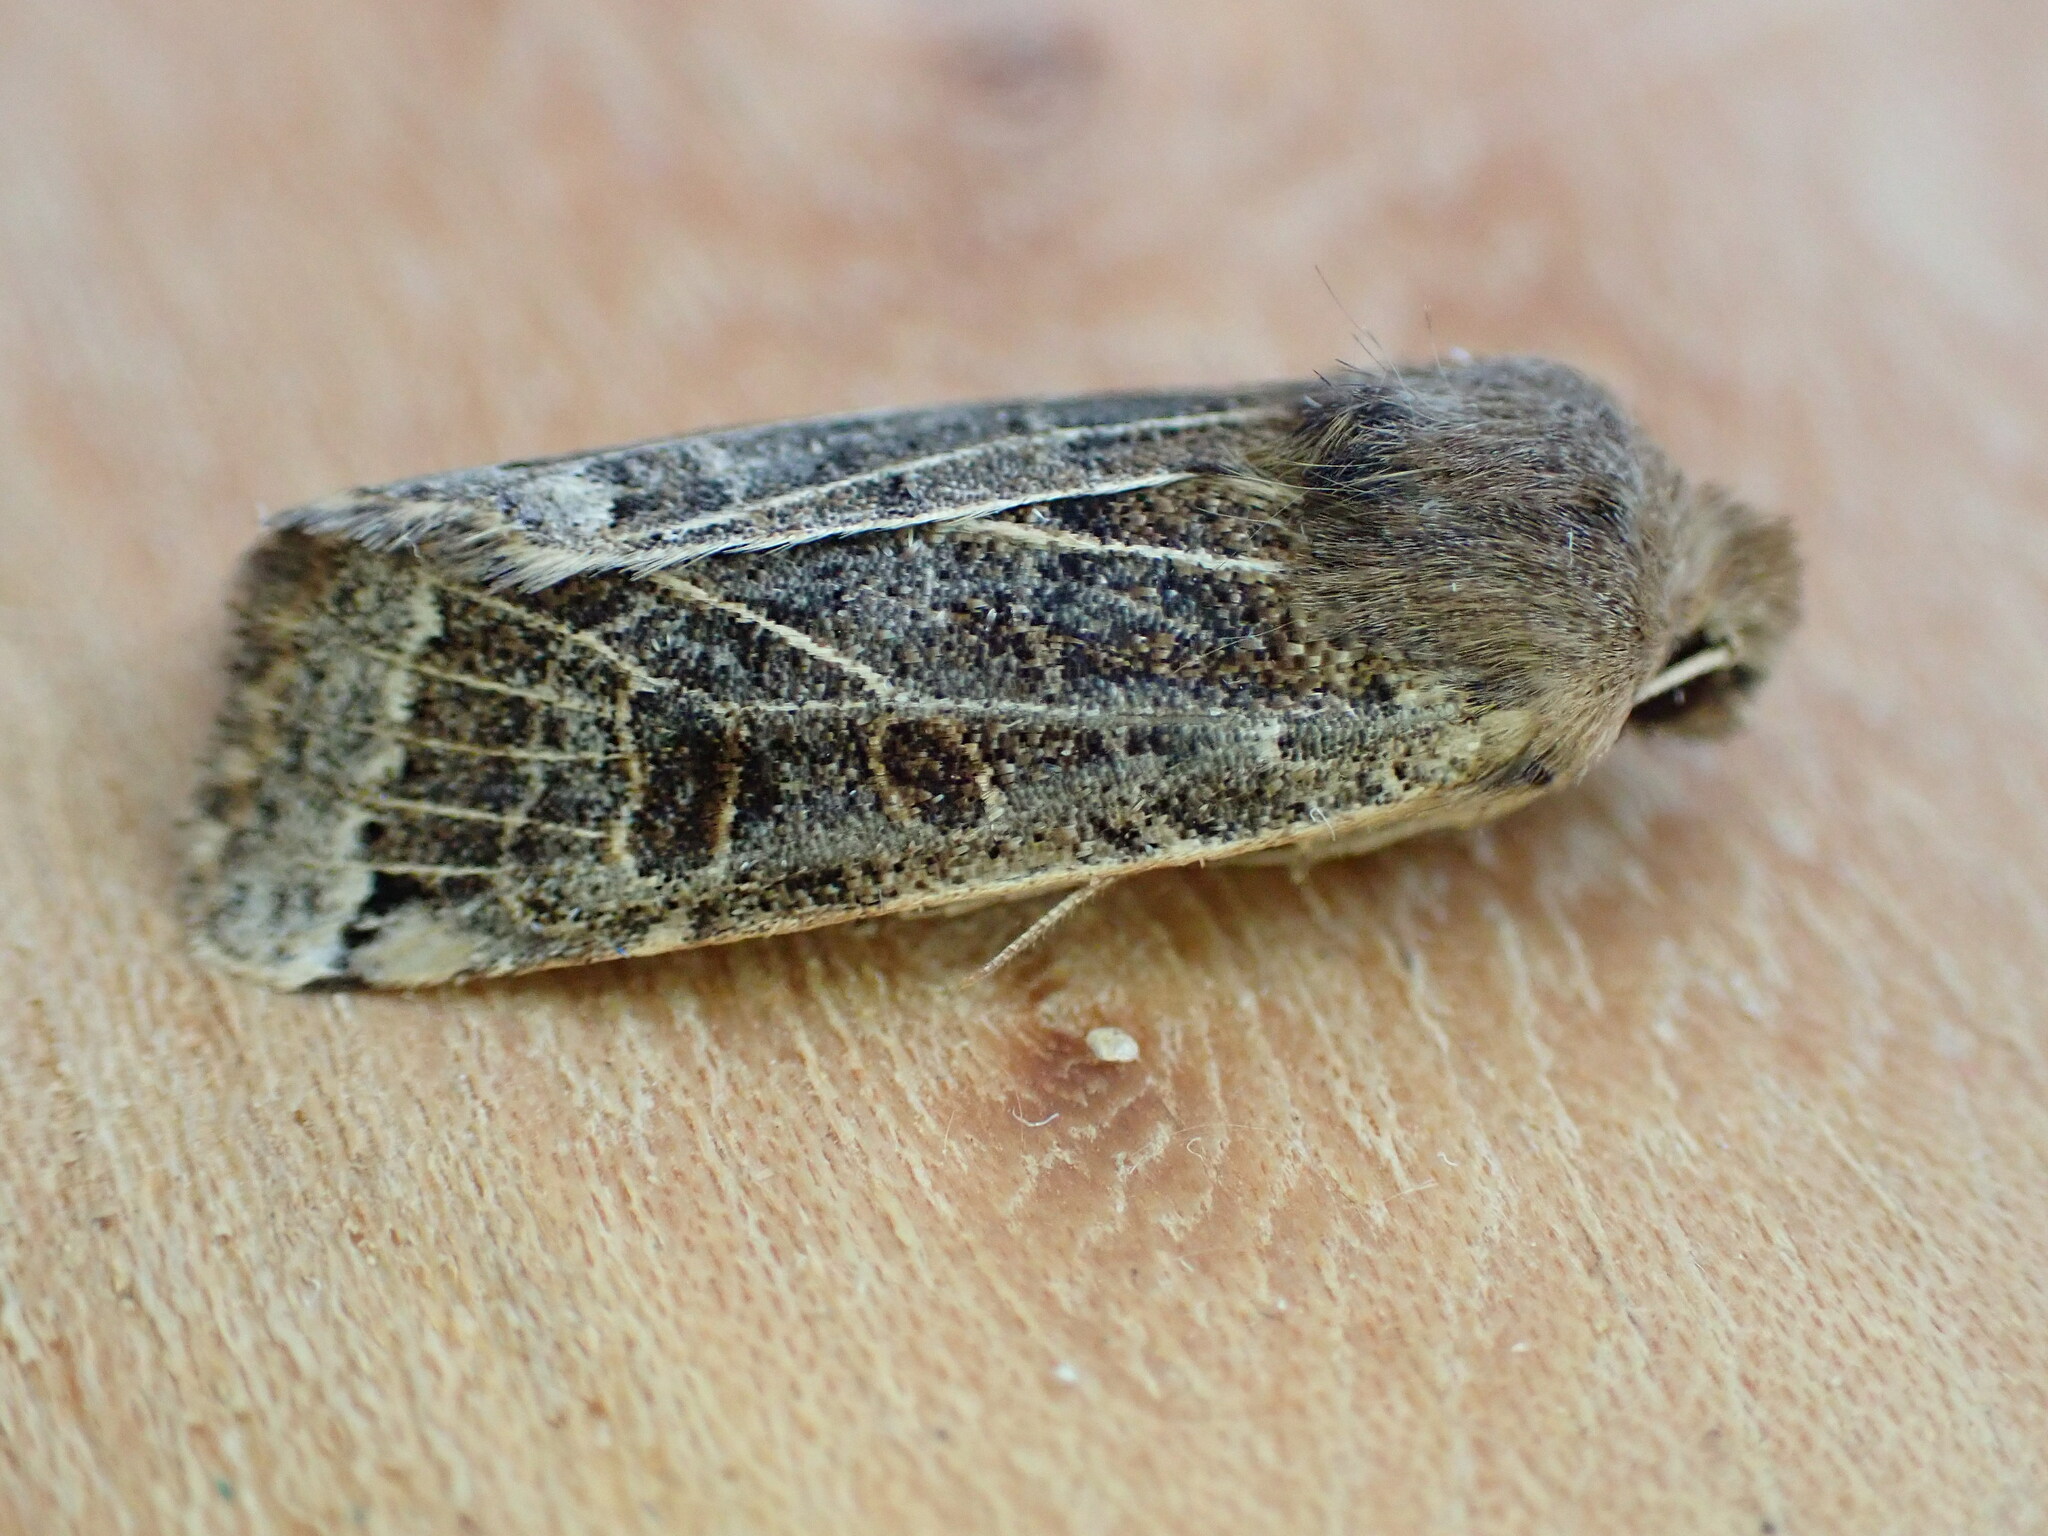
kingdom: Animalia
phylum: Arthropoda
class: Insecta
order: Lepidoptera
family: Noctuidae
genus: Agrochola
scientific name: Agrochola lunosa
